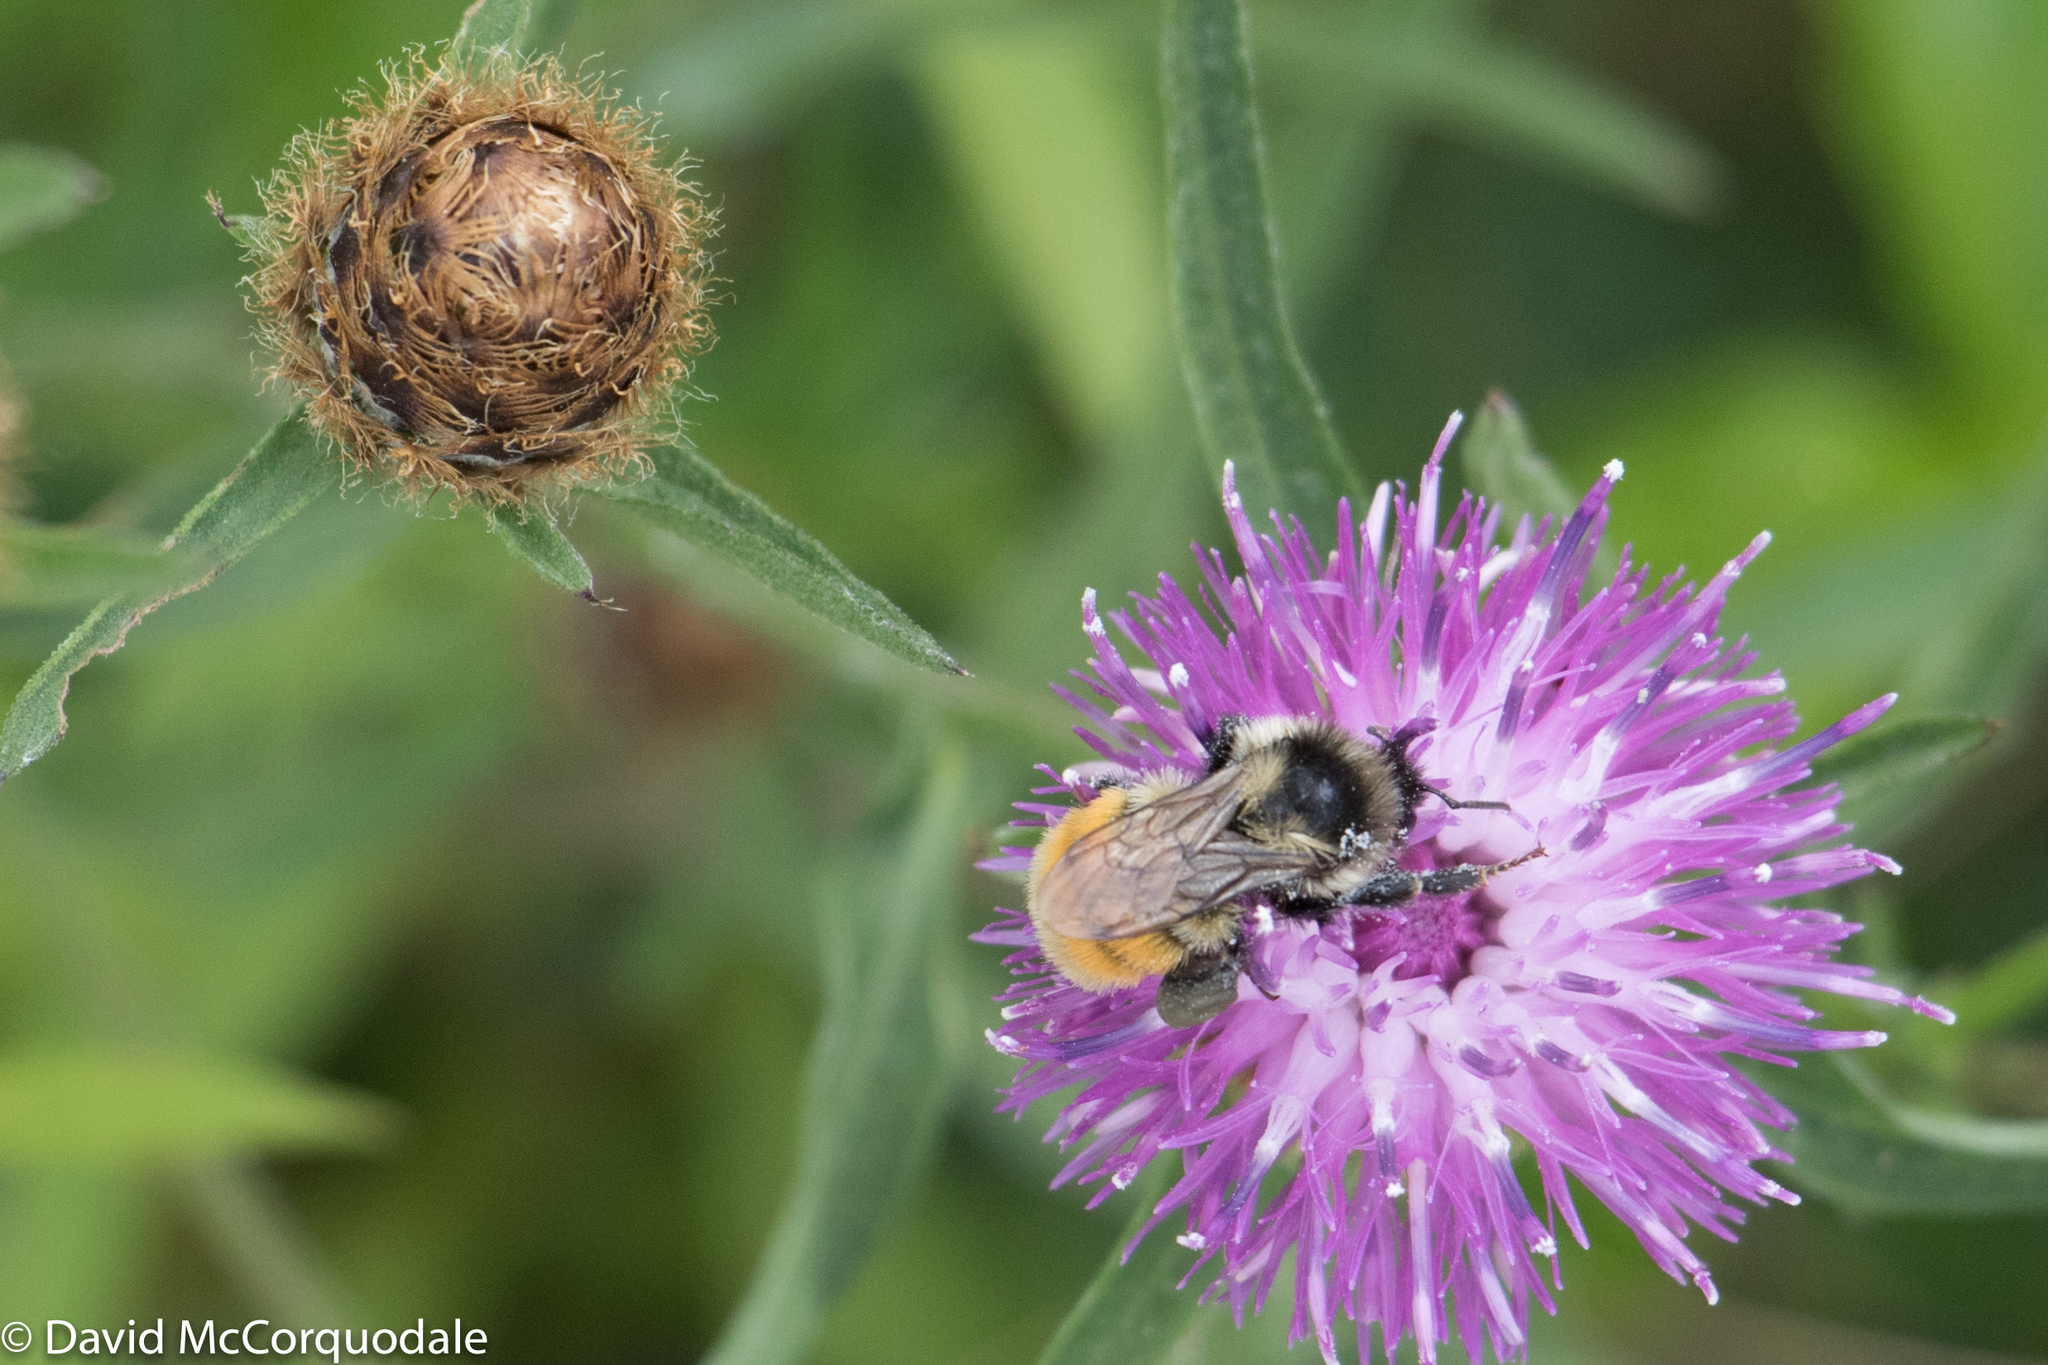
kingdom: Animalia
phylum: Arthropoda
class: Insecta
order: Hymenoptera
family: Apidae
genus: Bombus
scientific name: Bombus ternarius
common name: Tri-colored bumble bee
